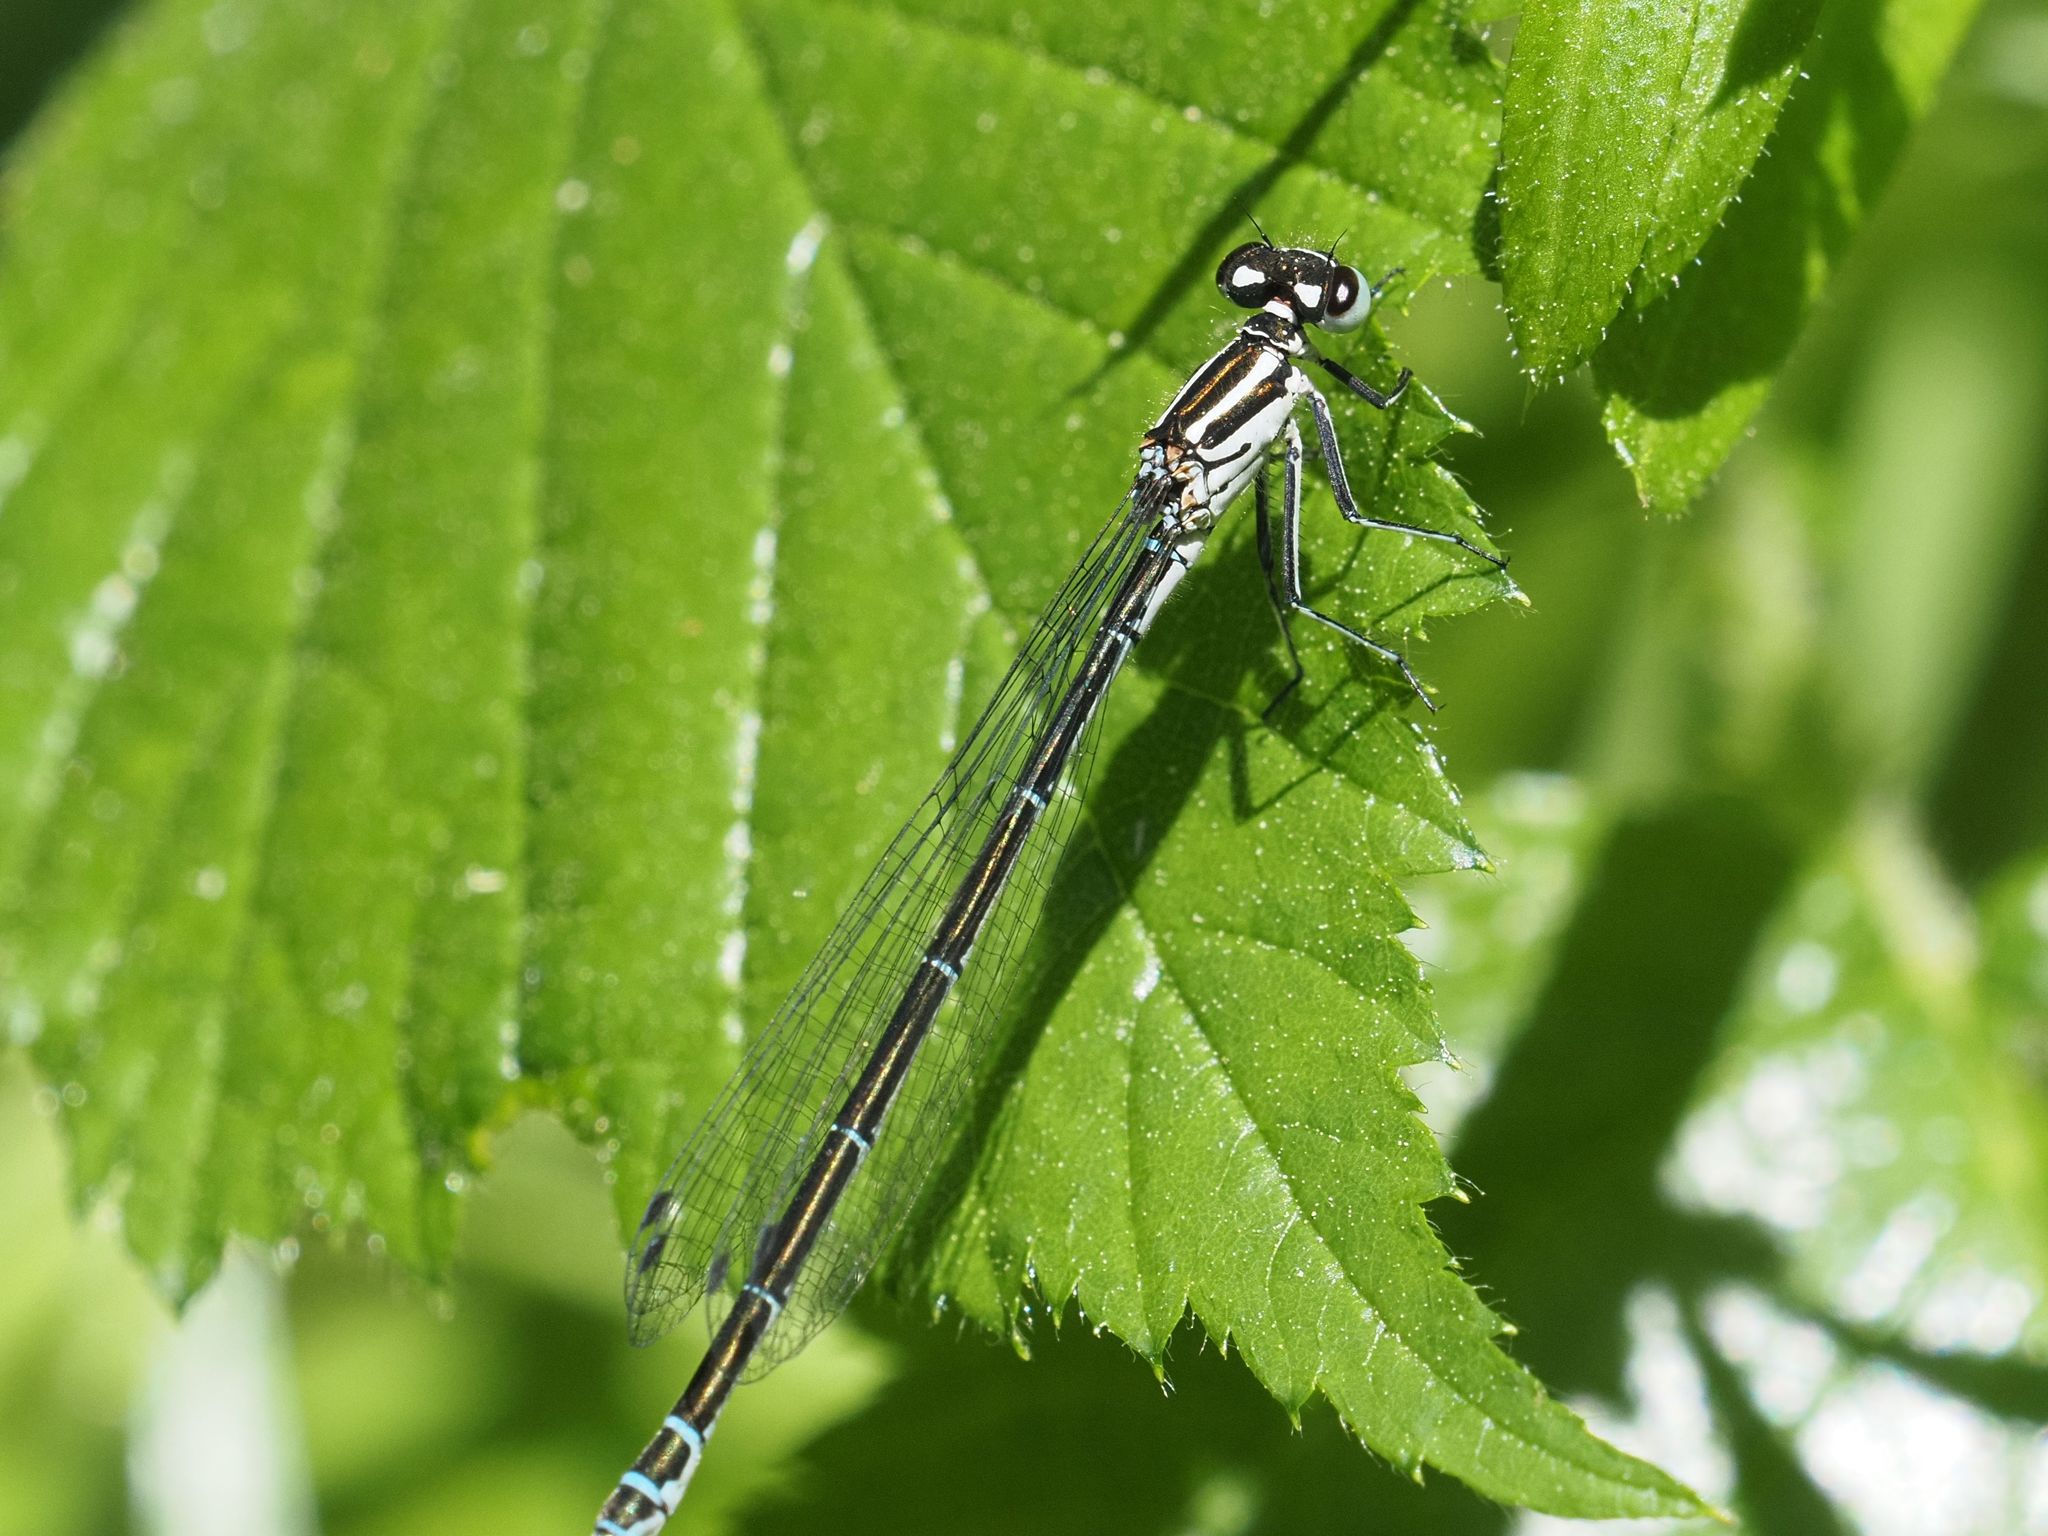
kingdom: Animalia
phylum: Arthropoda
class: Insecta
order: Odonata
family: Coenagrionidae
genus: Coenagrion
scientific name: Coenagrion puella
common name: Azure damselfly
